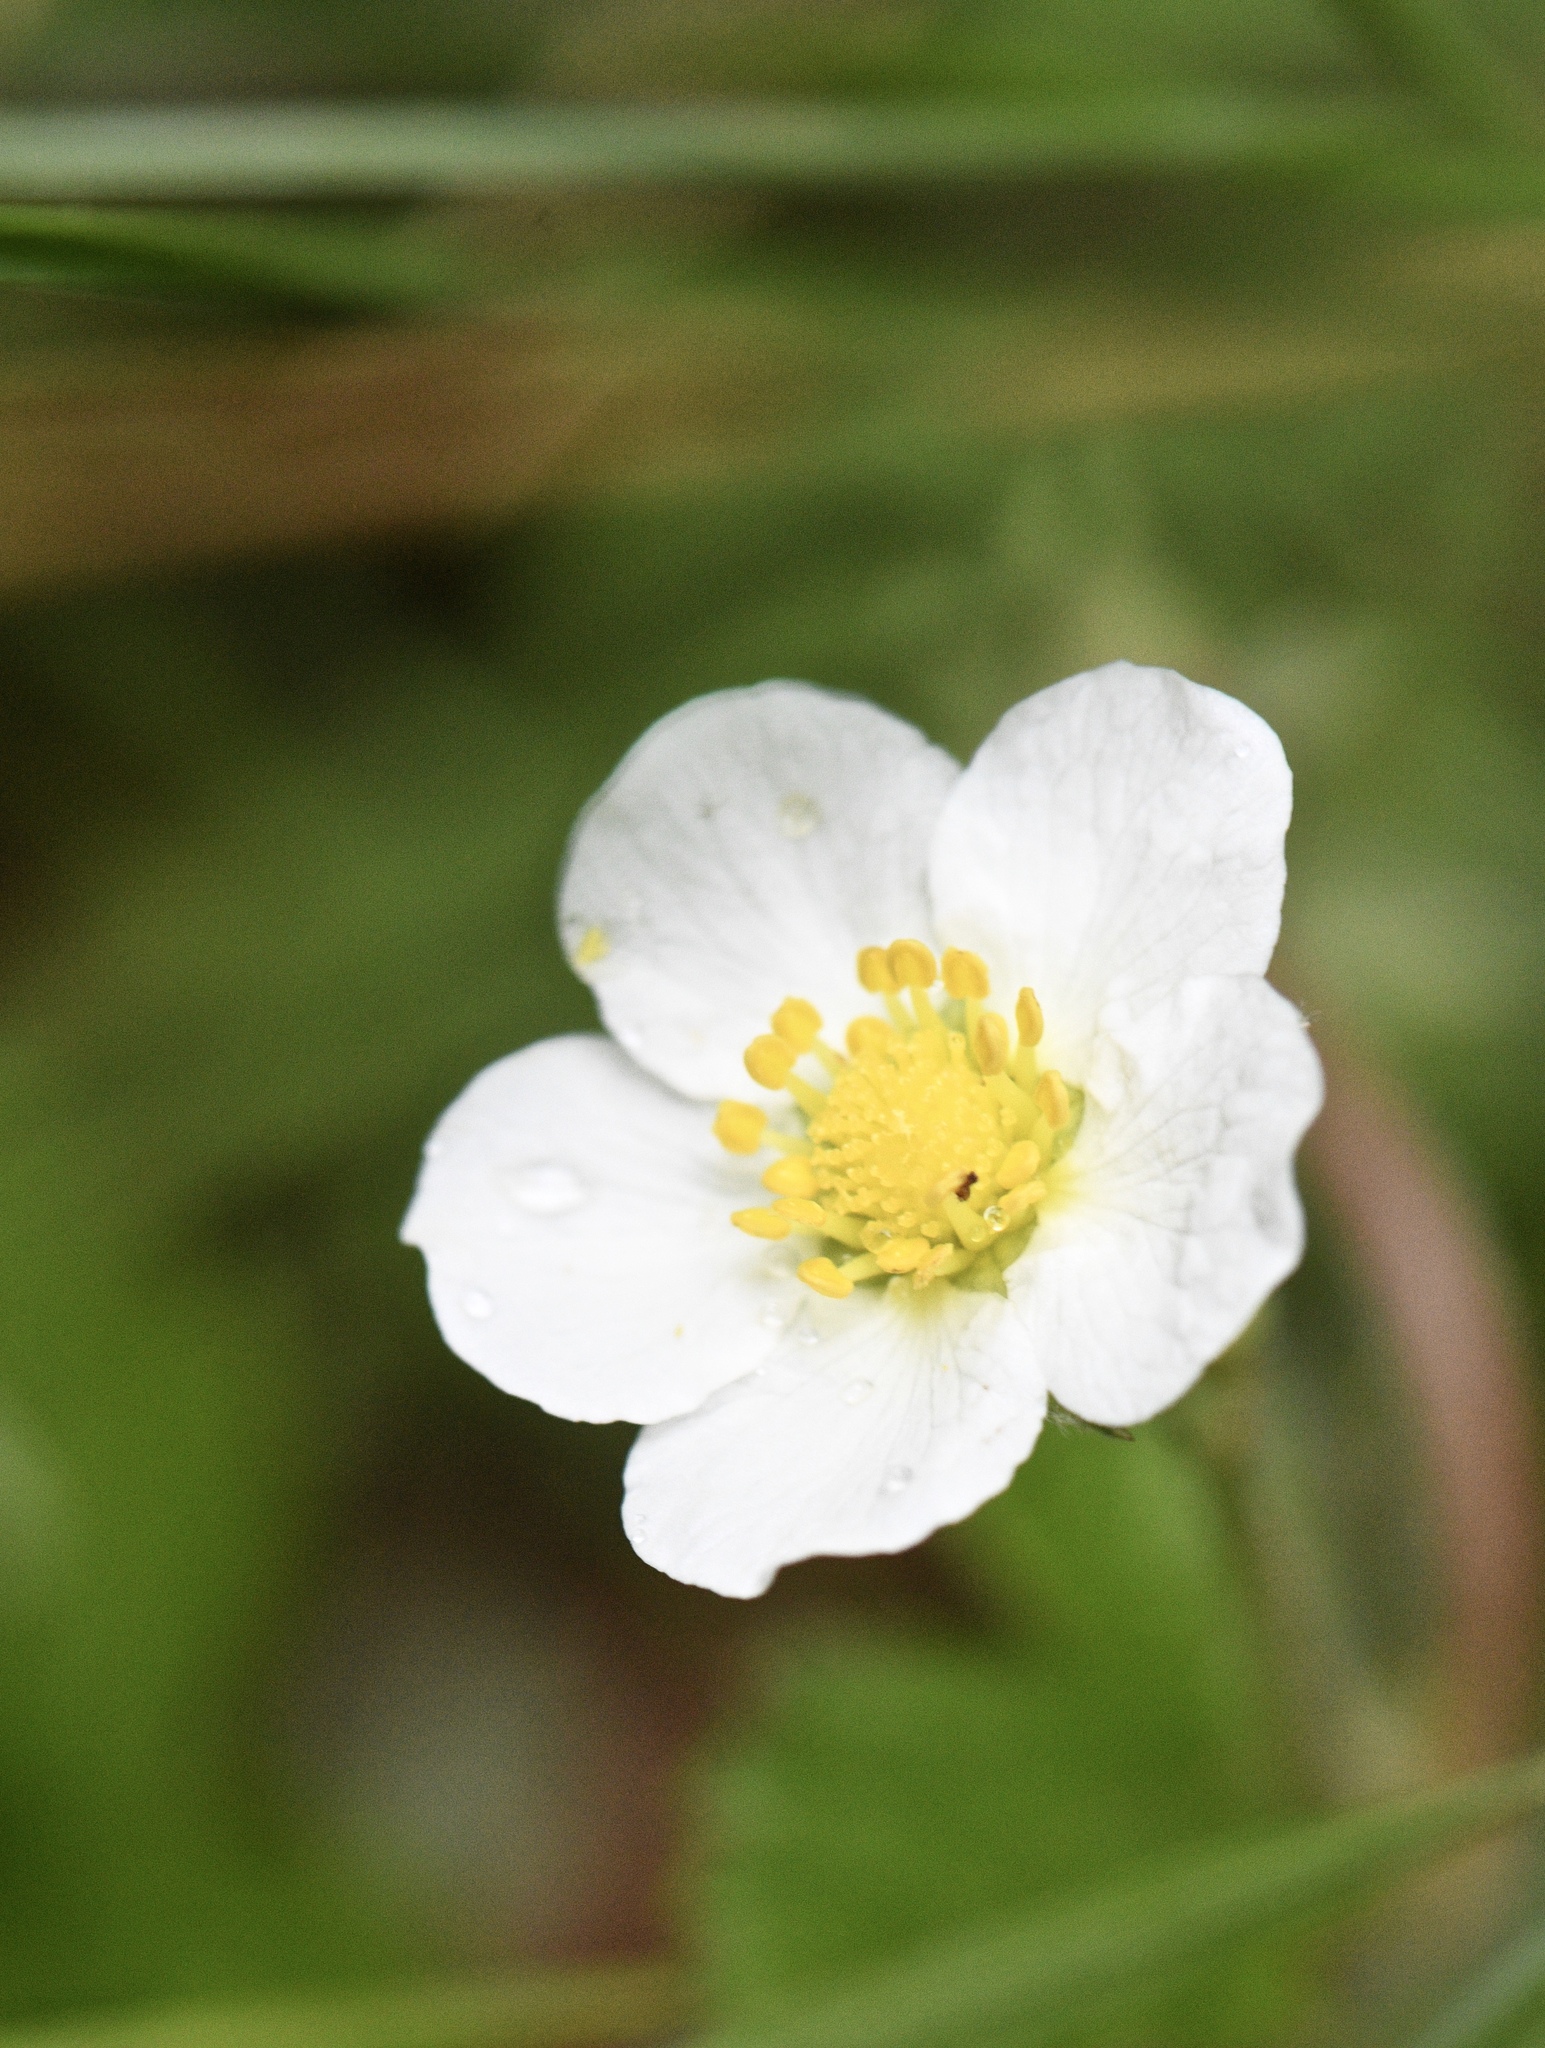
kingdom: Plantae
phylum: Tracheophyta
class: Magnoliopsida
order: Rosales
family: Rosaceae
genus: Fragaria
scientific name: Fragaria vesca
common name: Wild strawberry
